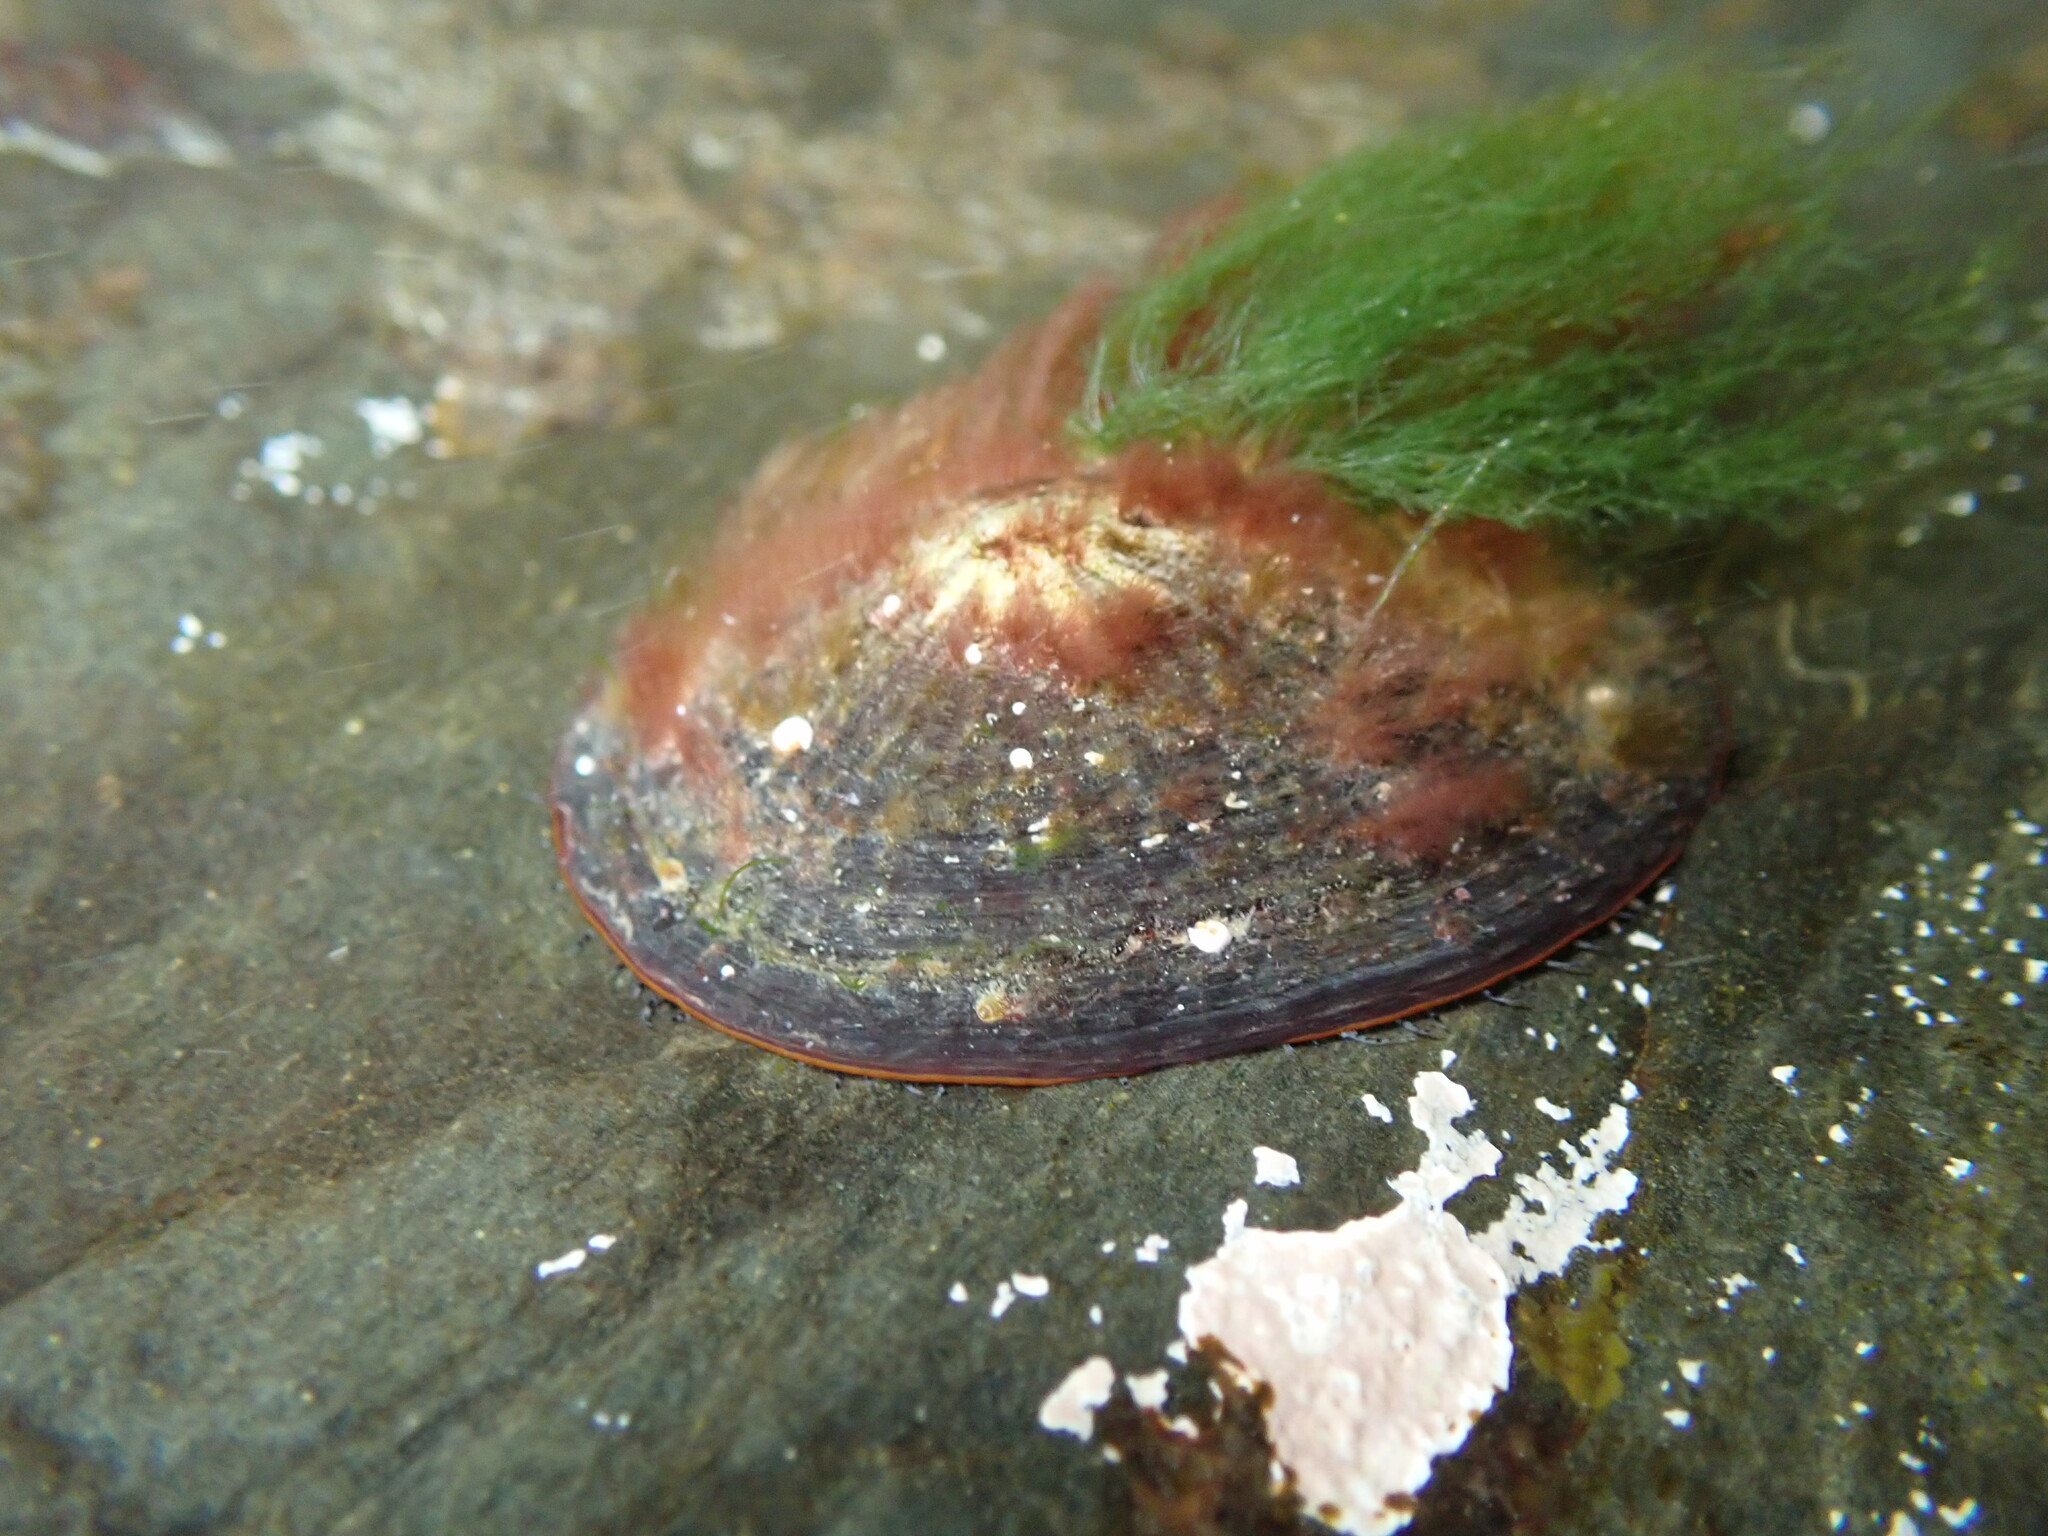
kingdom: Animalia
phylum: Mollusca
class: Gastropoda
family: Nacellidae
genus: Cellana
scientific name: Cellana stellifera
